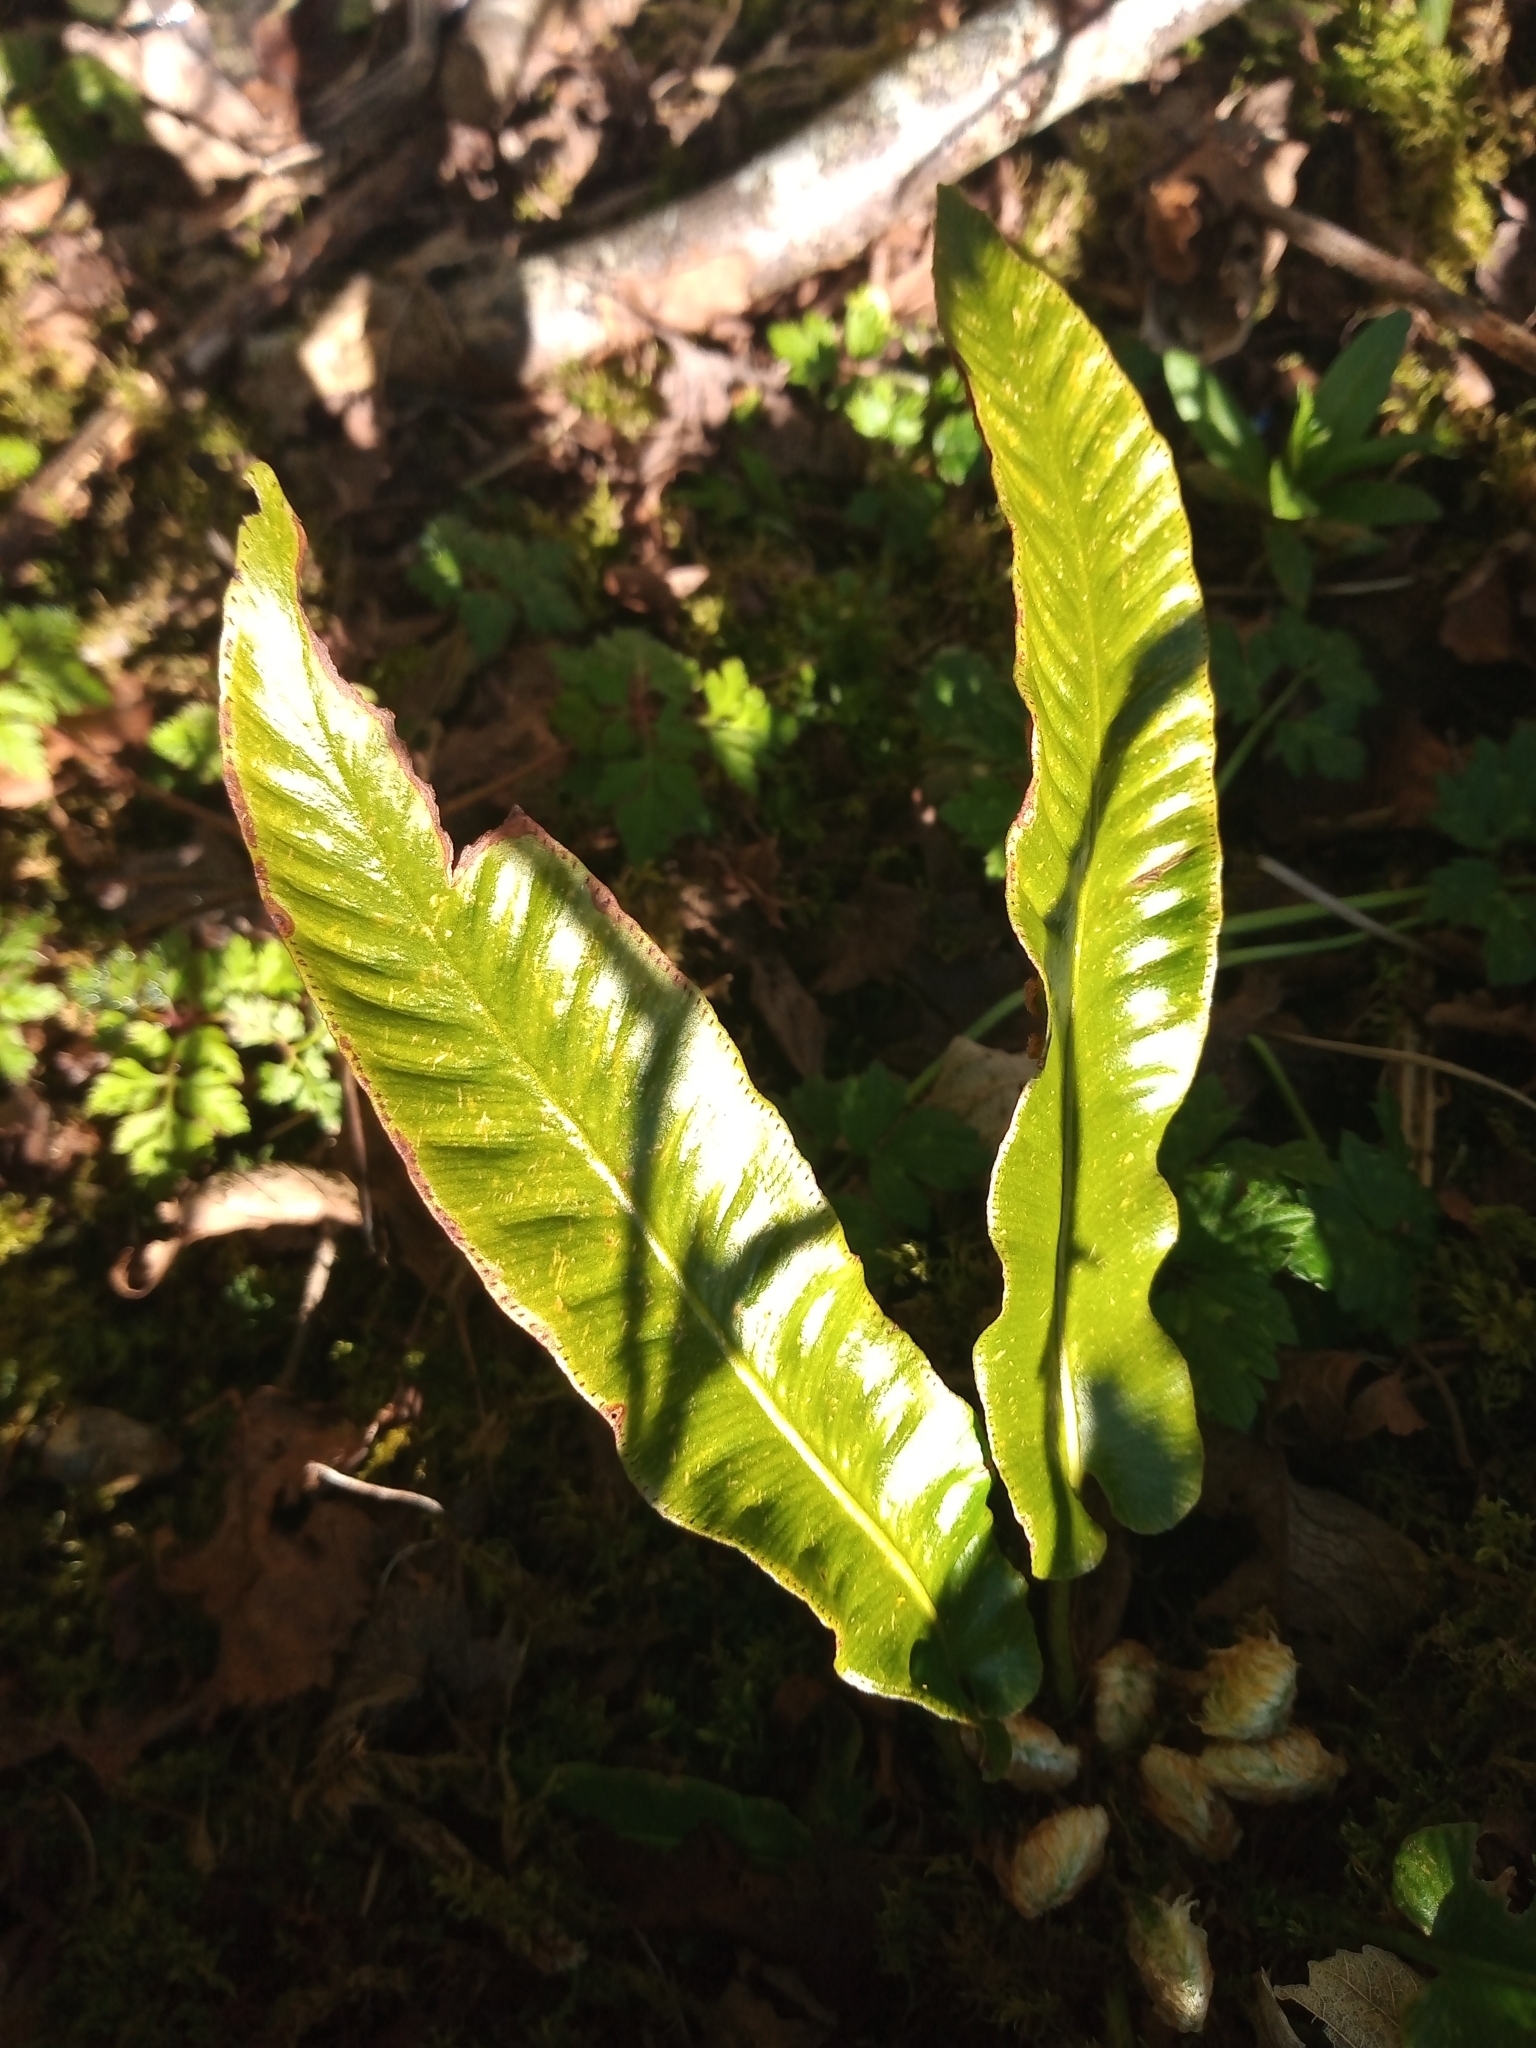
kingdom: Plantae
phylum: Tracheophyta
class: Polypodiopsida
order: Polypodiales
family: Aspleniaceae
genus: Asplenium
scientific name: Asplenium scolopendrium
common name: Hart's-tongue fern
